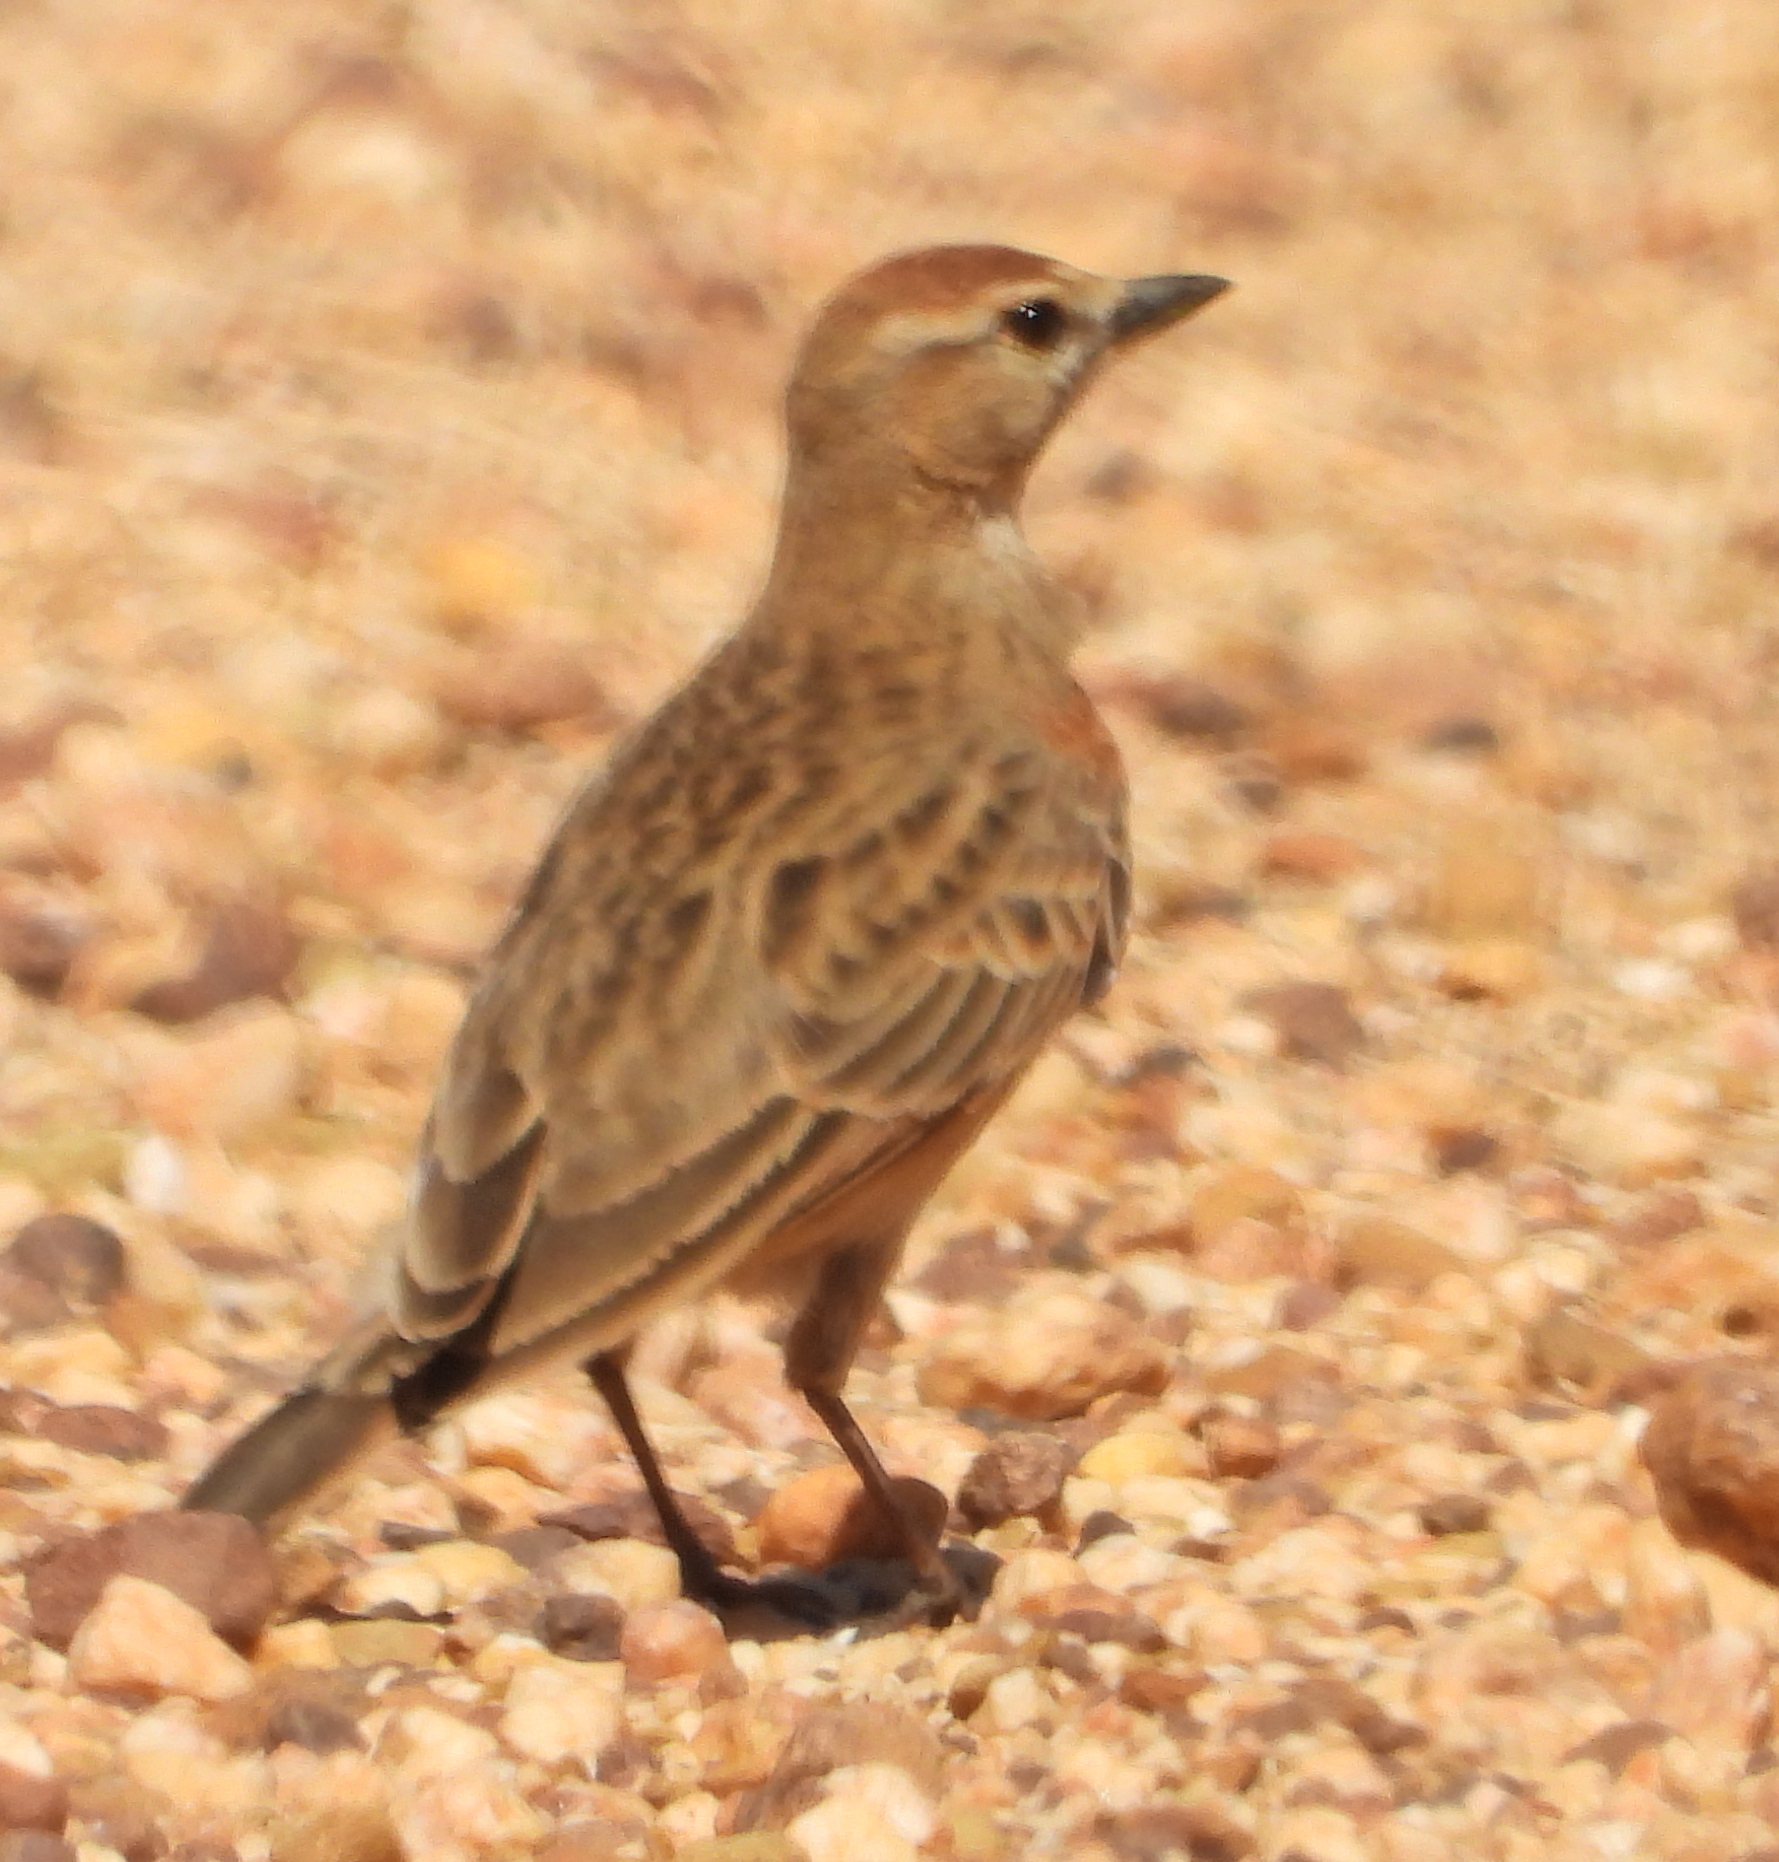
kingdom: Animalia
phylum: Chordata
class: Aves
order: Passeriformes
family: Alaudidae
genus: Calandrella
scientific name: Calandrella cinerea
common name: Red-capped lark
